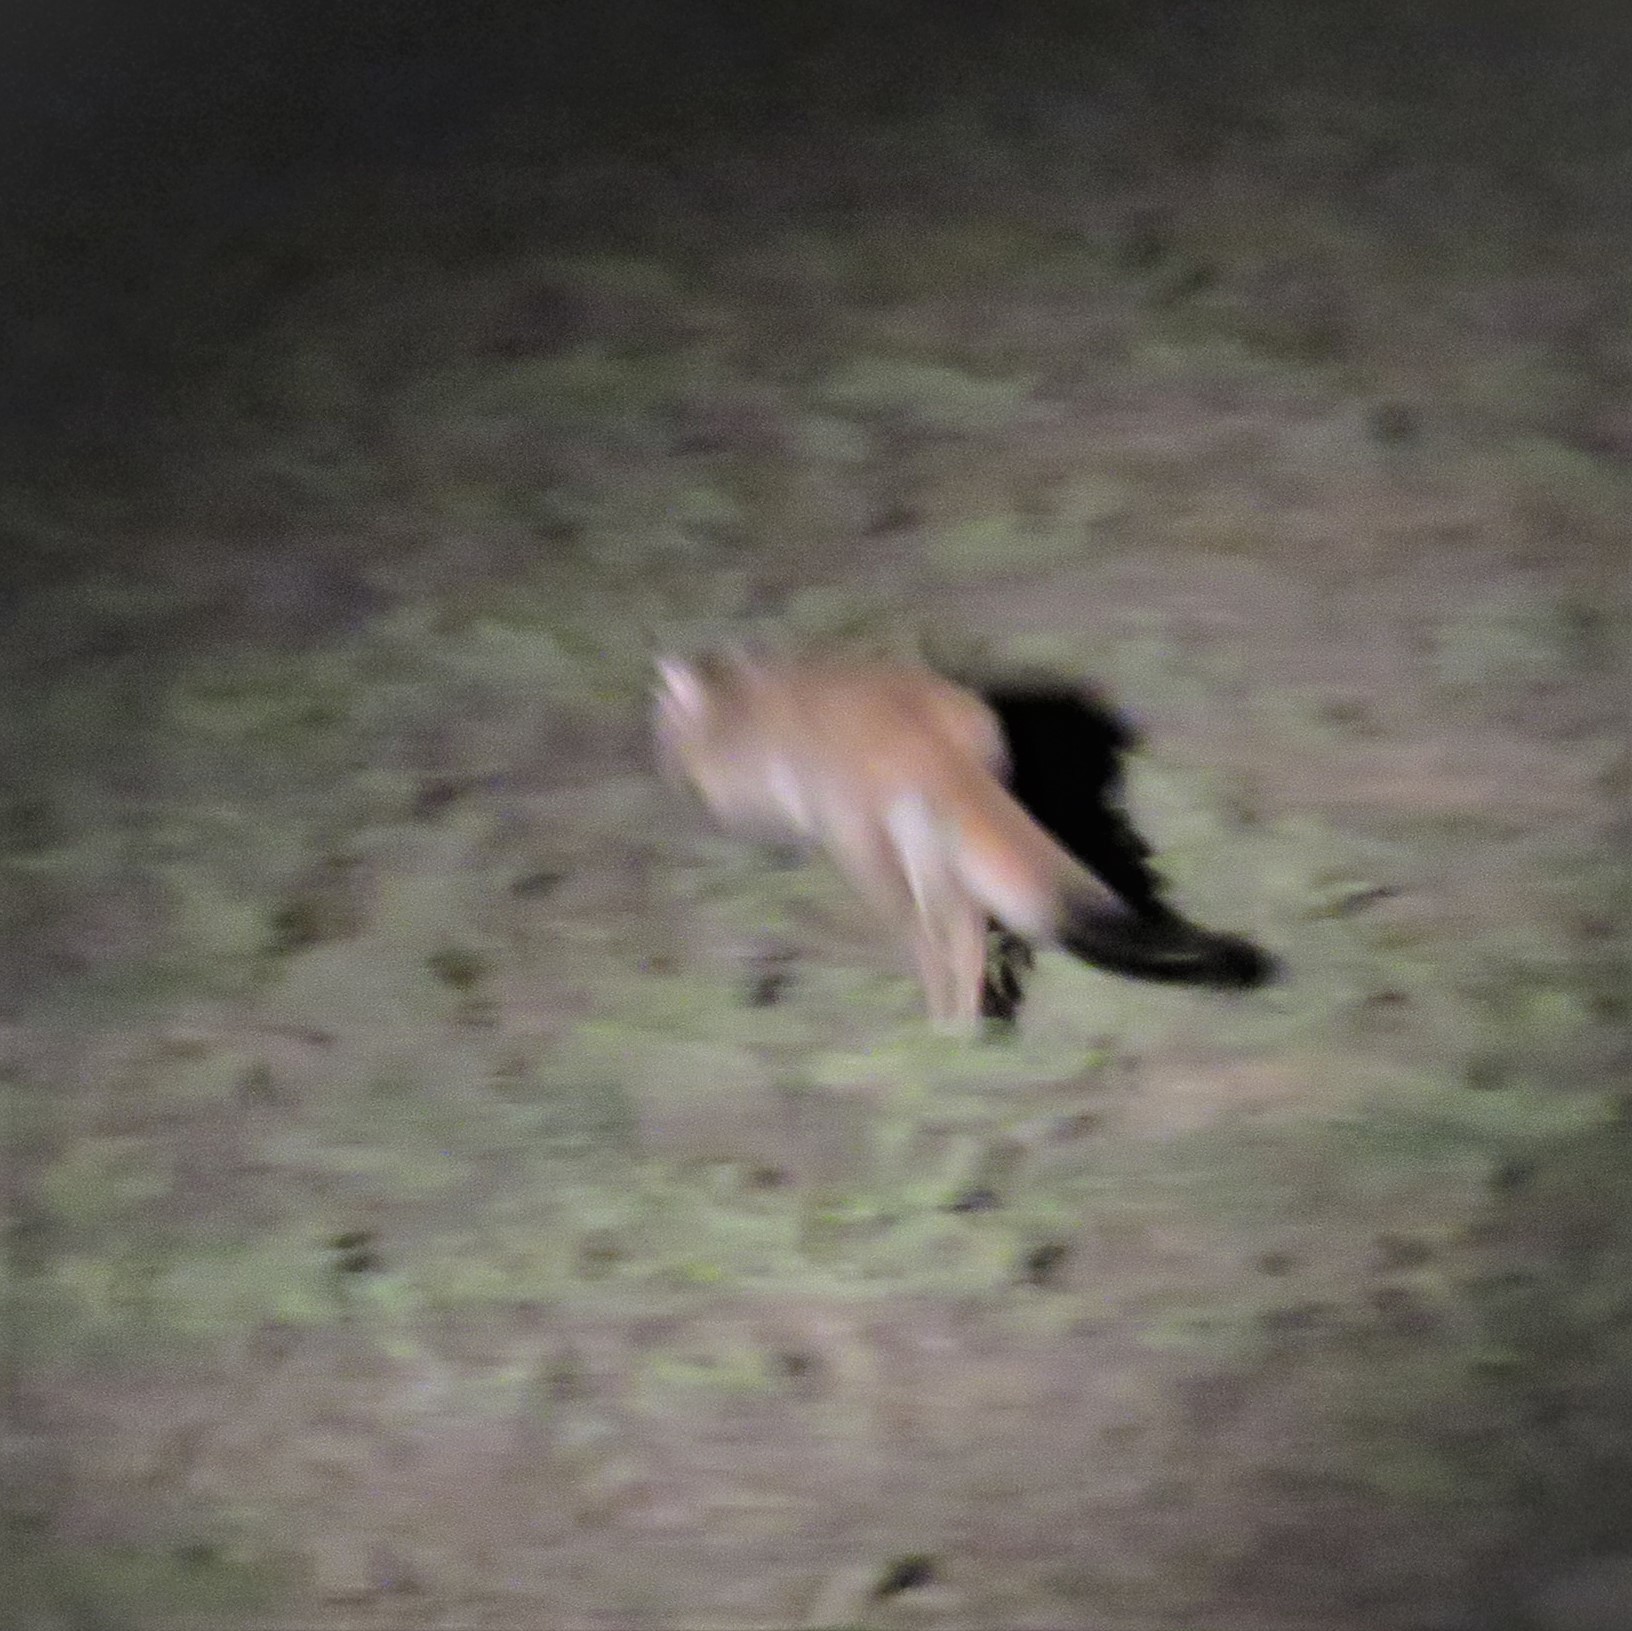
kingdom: Animalia
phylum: Chordata
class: Mammalia
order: Rodentia
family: Pedetidae
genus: Pedetes
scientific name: Pedetes capensis
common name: South african spring hare
